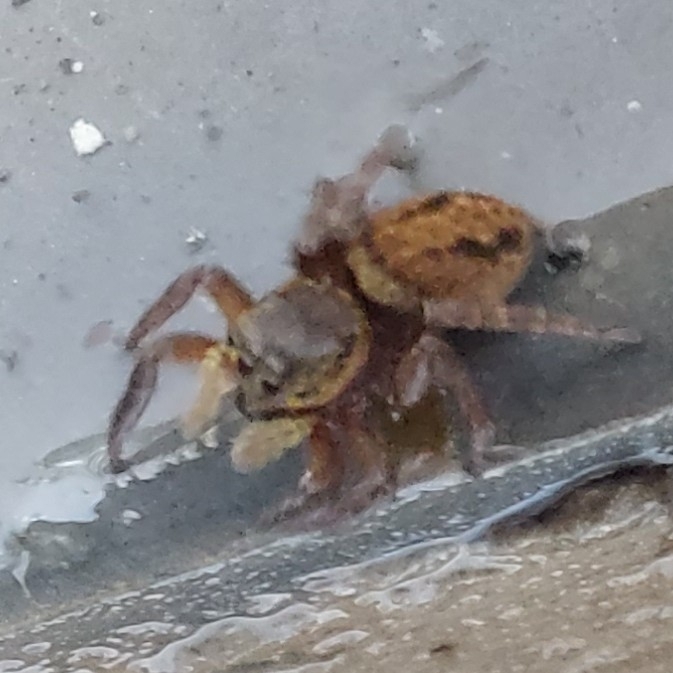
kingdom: Animalia
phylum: Arthropoda
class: Arachnida
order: Araneae
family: Salticidae
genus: Hasarius
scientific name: Hasarius adansoni
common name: Jumping spider
